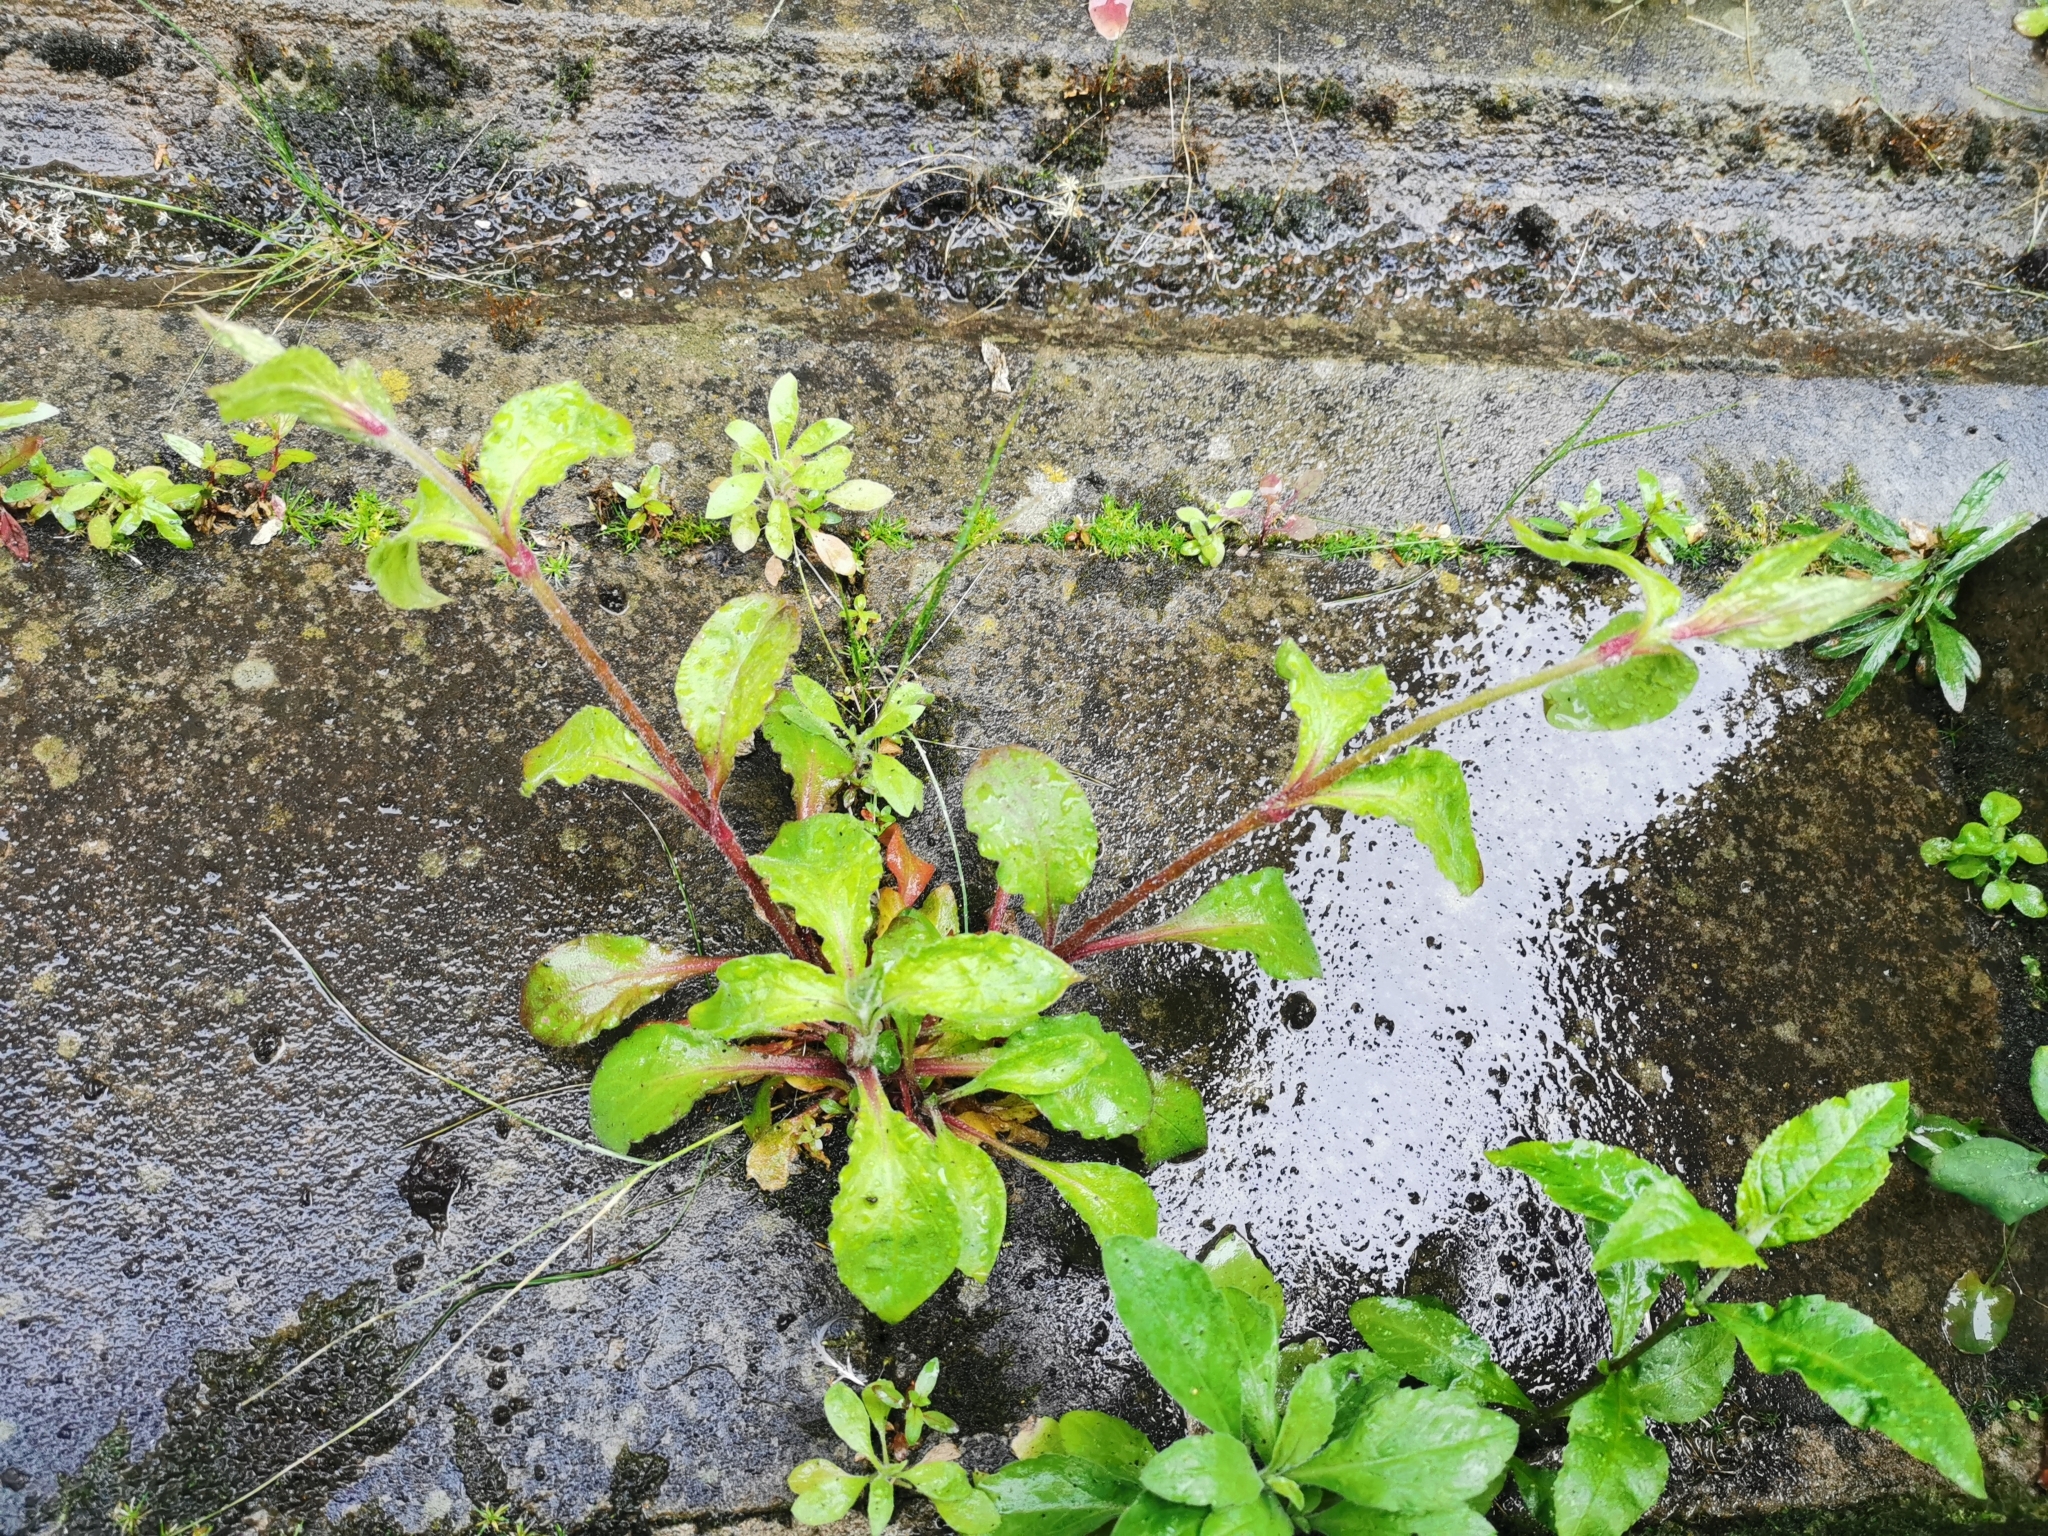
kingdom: Plantae
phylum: Tracheophyta
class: Magnoliopsida
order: Caryophyllales
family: Caryophyllaceae
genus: Silene
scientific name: Silene dioica
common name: Red campion
